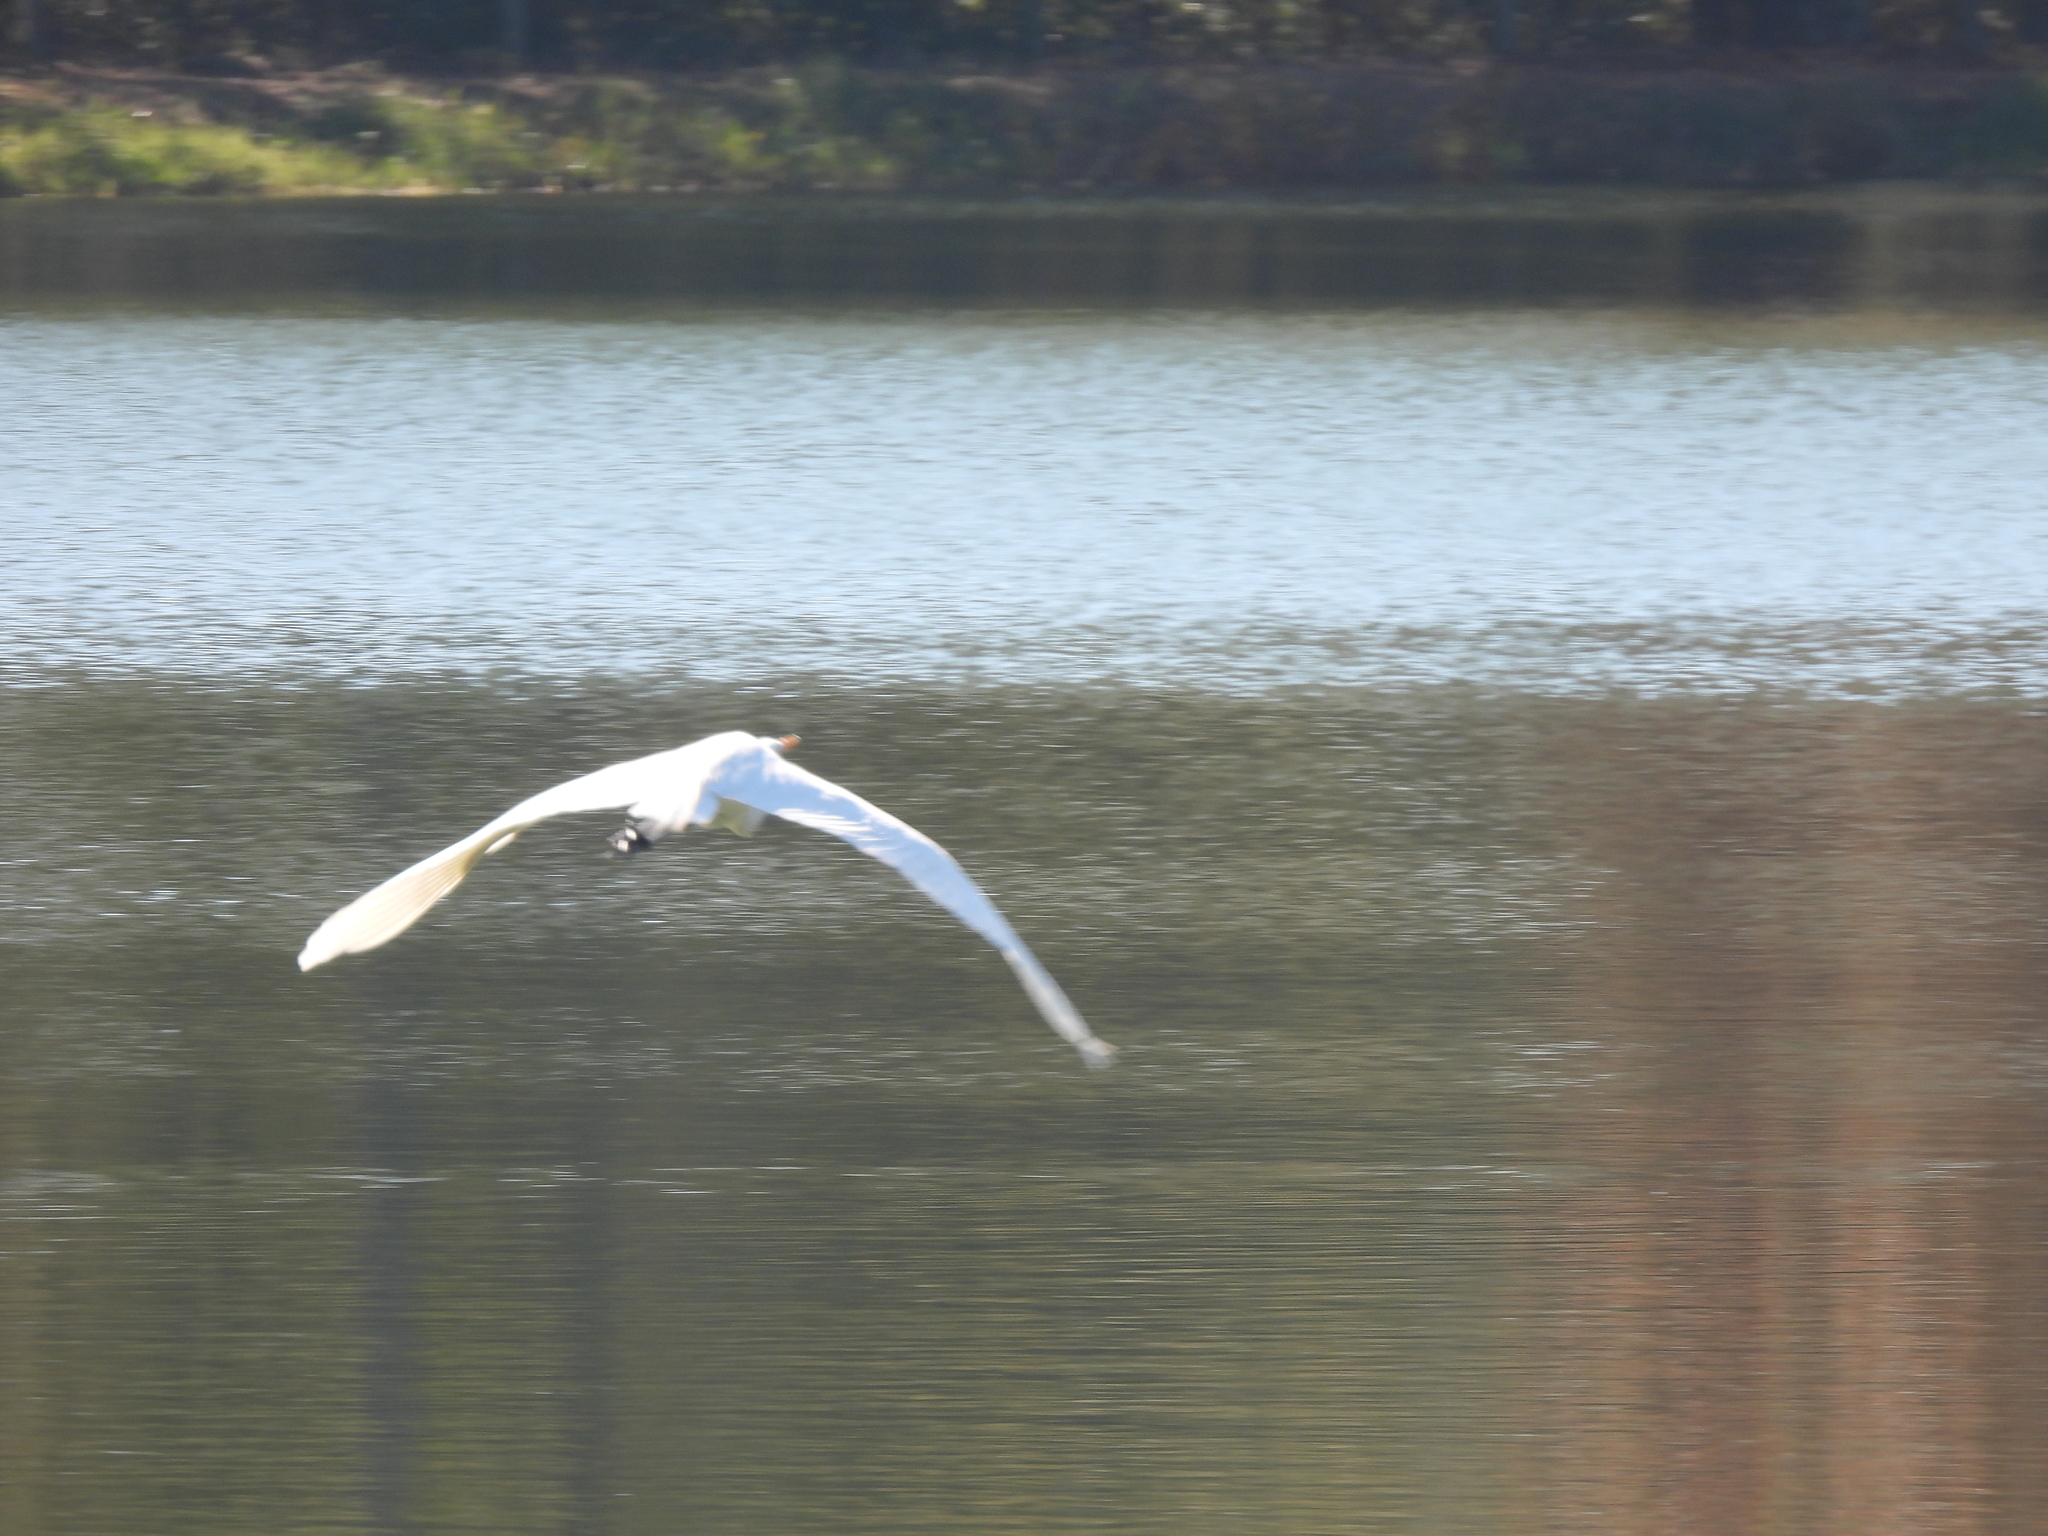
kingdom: Animalia
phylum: Chordata
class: Aves
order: Pelecaniformes
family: Ardeidae
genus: Ardea
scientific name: Ardea alba
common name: Great egret
